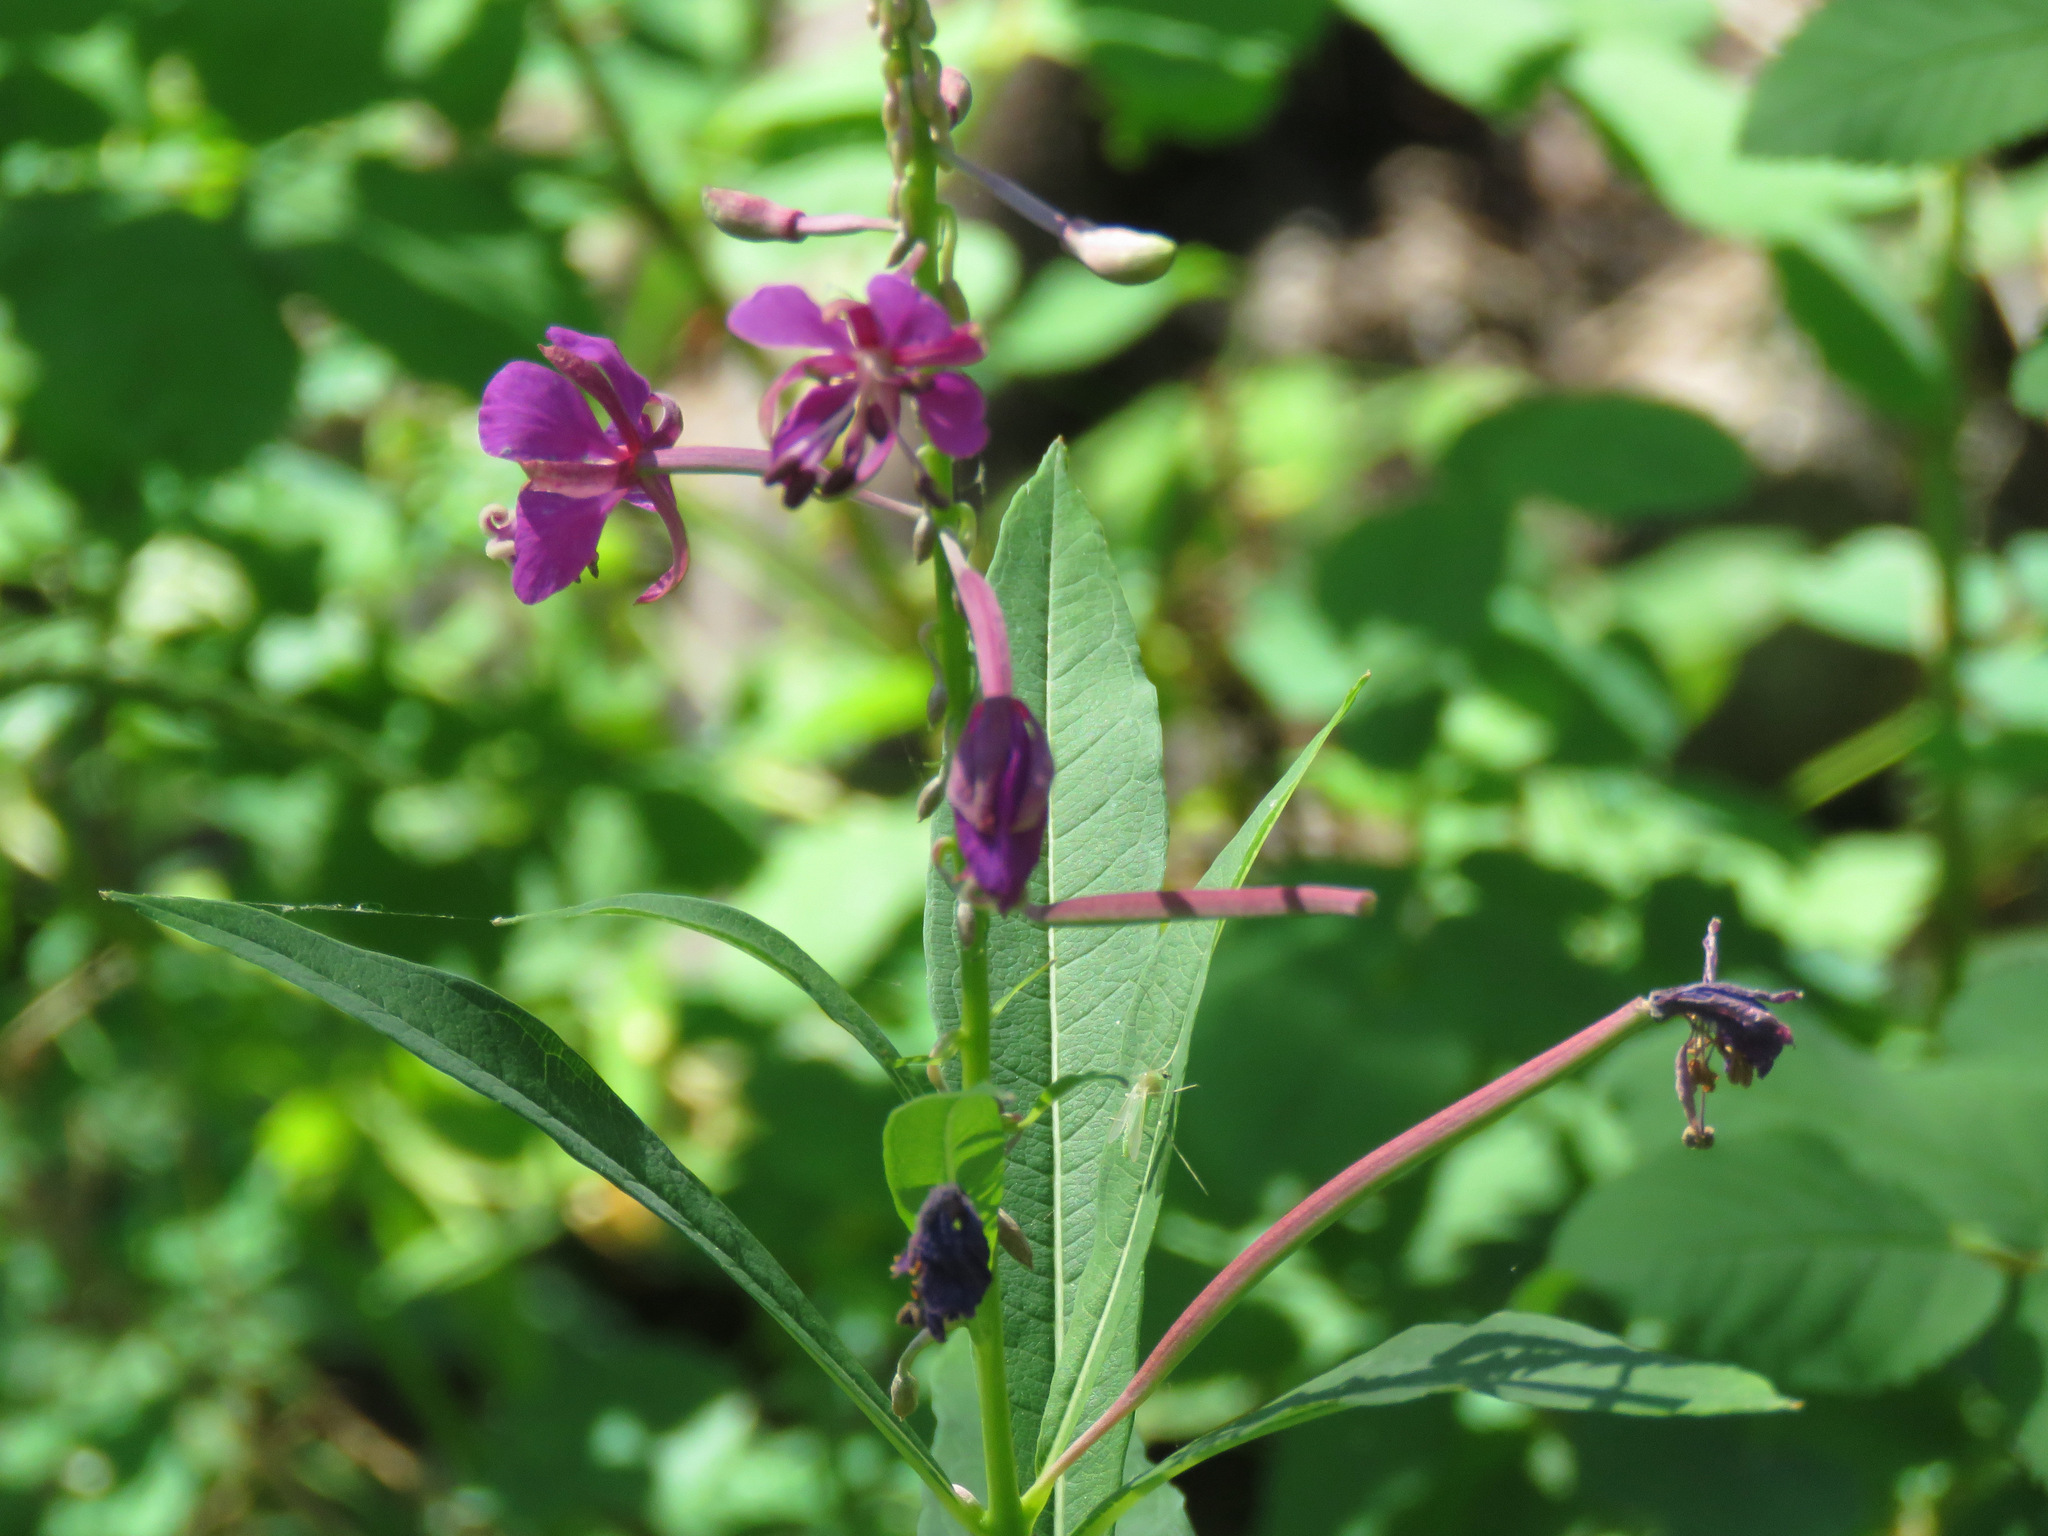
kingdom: Plantae
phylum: Tracheophyta
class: Magnoliopsida
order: Myrtales
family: Onagraceae
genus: Chamaenerion
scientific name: Chamaenerion angustifolium
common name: Fireweed
